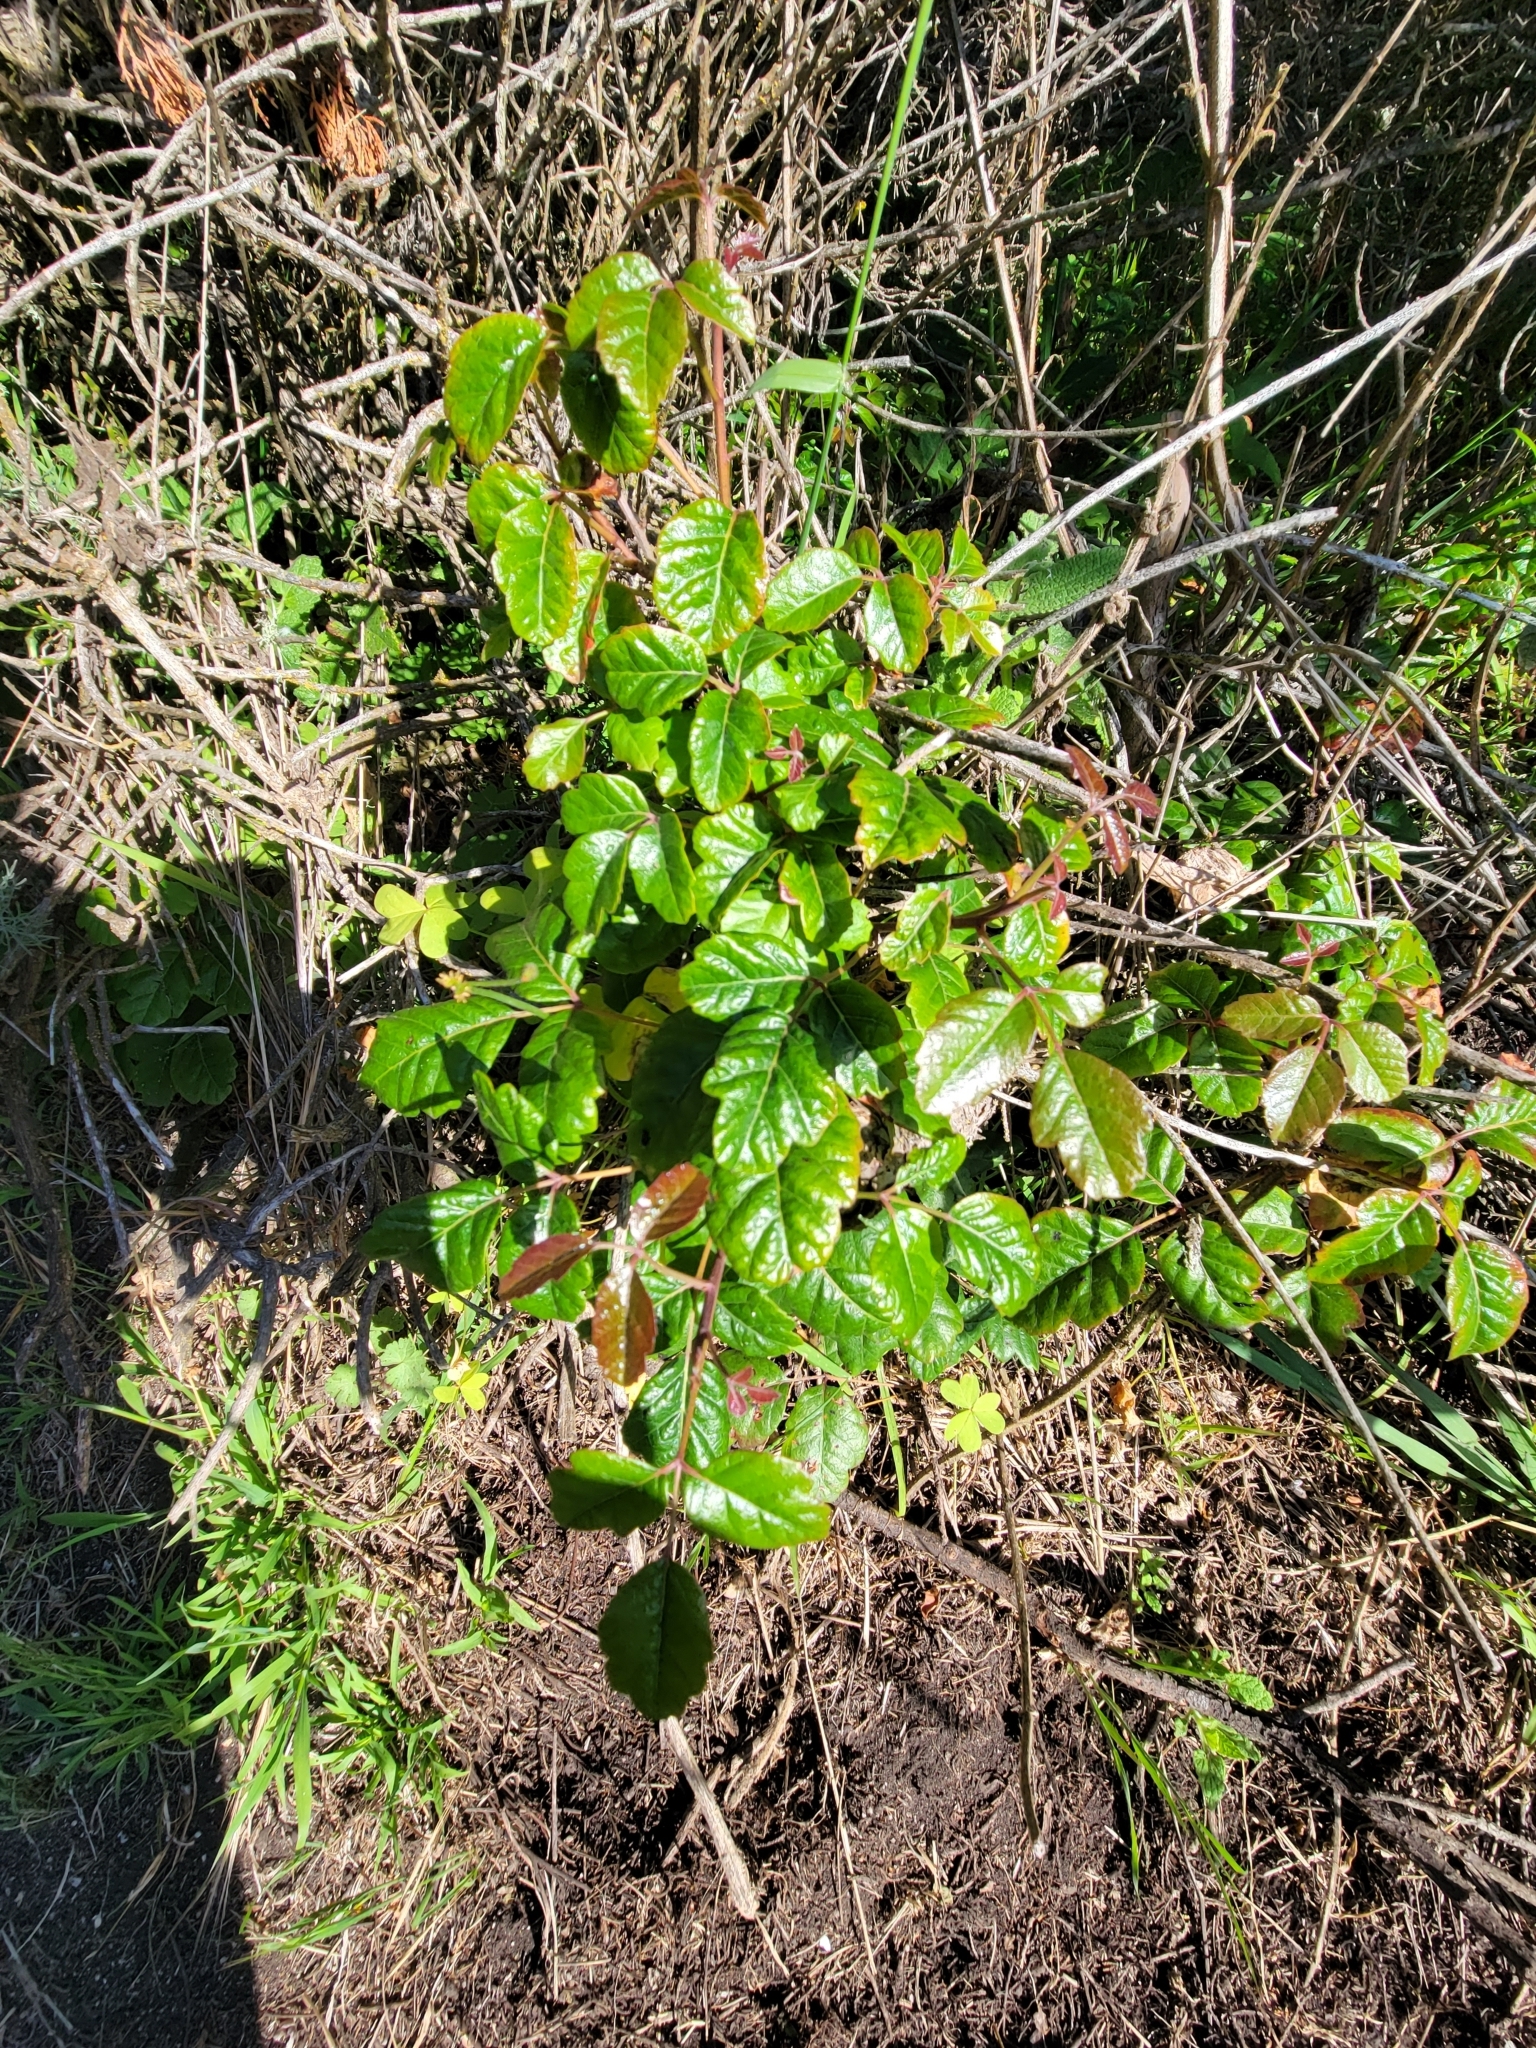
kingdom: Plantae
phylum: Tracheophyta
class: Magnoliopsida
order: Sapindales
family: Anacardiaceae
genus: Toxicodendron
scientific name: Toxicodendron diversilobum
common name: Pacific poison-oak
